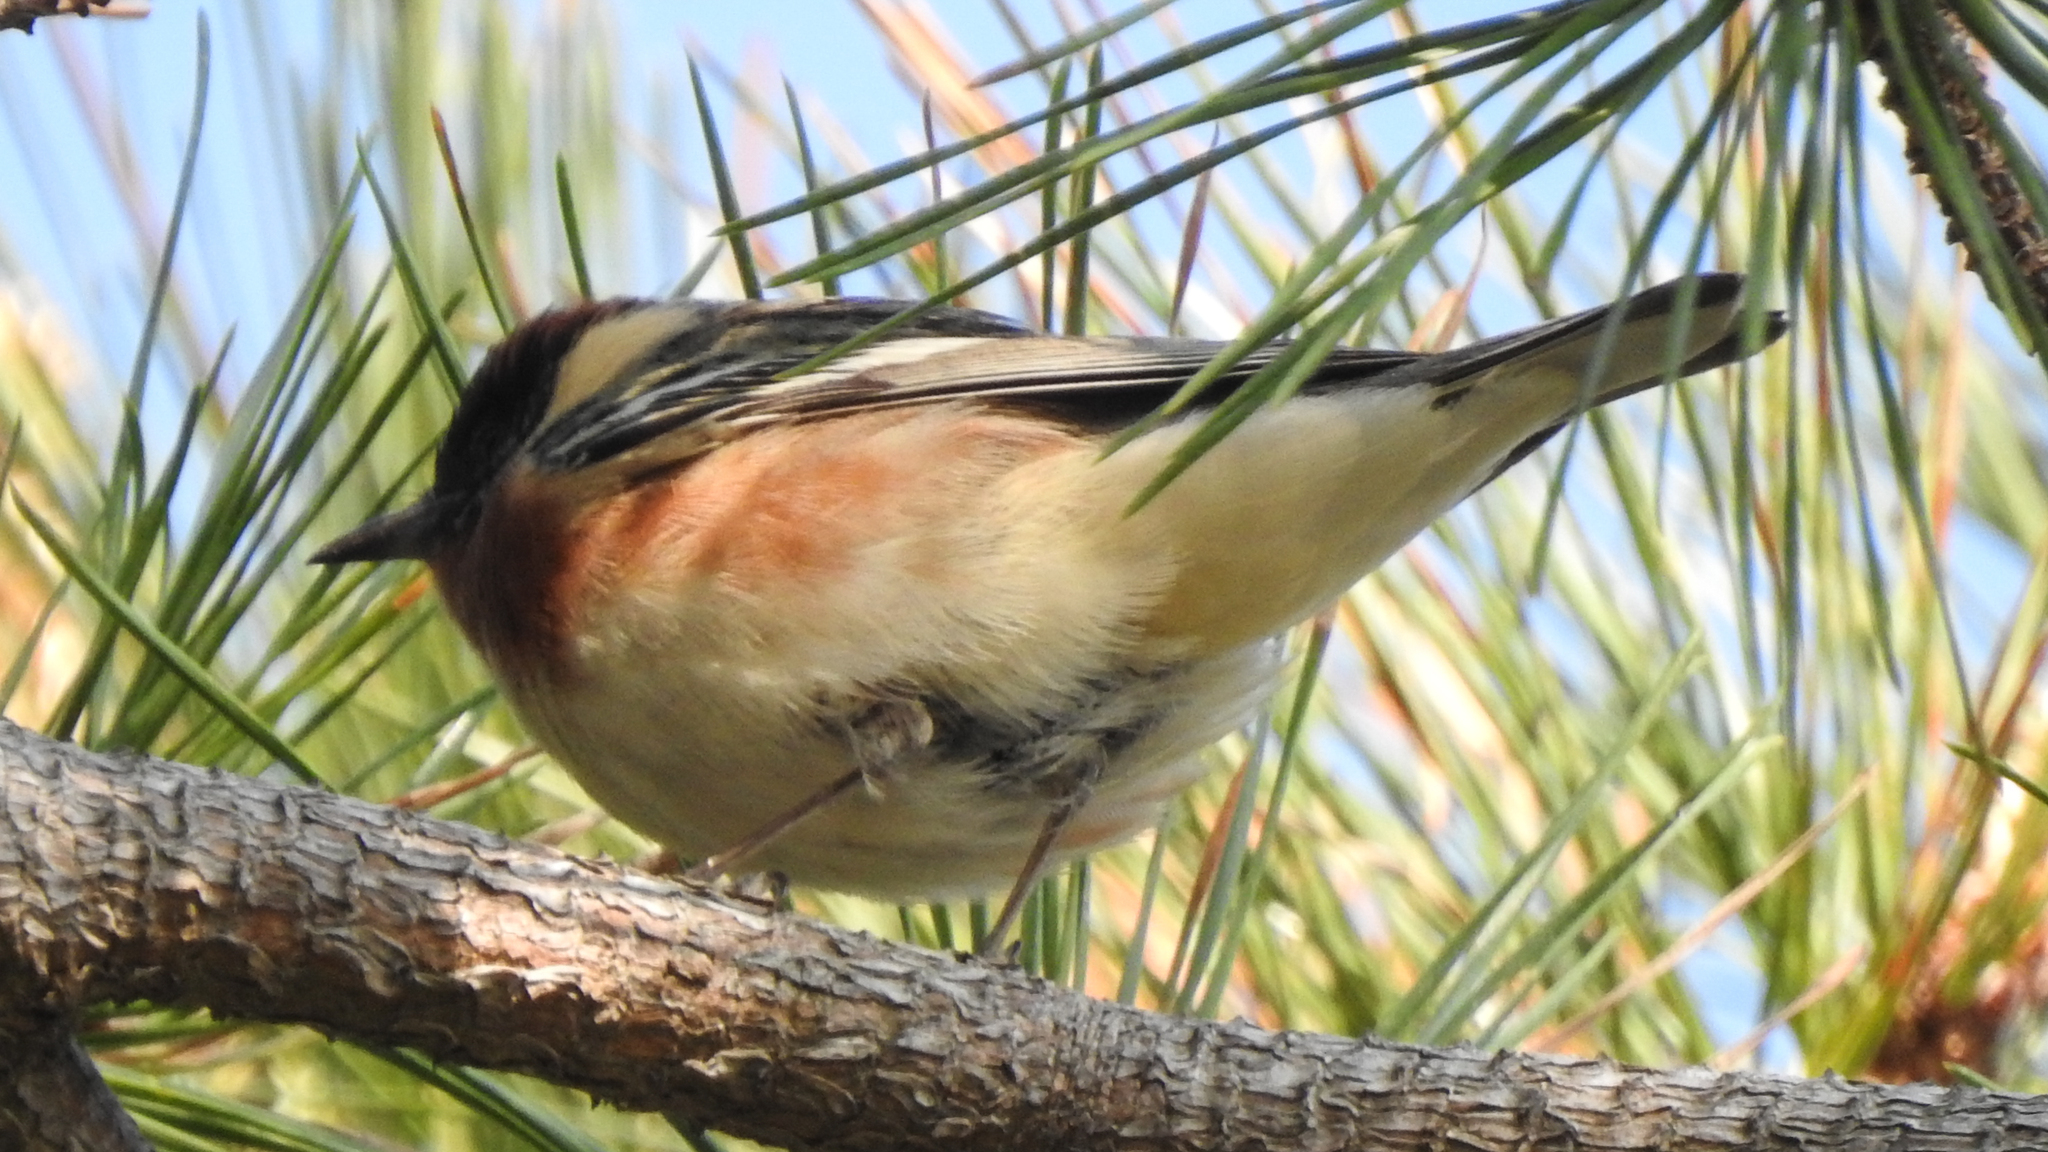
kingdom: Animalia
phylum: Chordata
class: Aves
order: Passeriformes
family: Parulidae
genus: Setophaga
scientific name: Setophaga castanea
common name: Bay-breasted warbler
